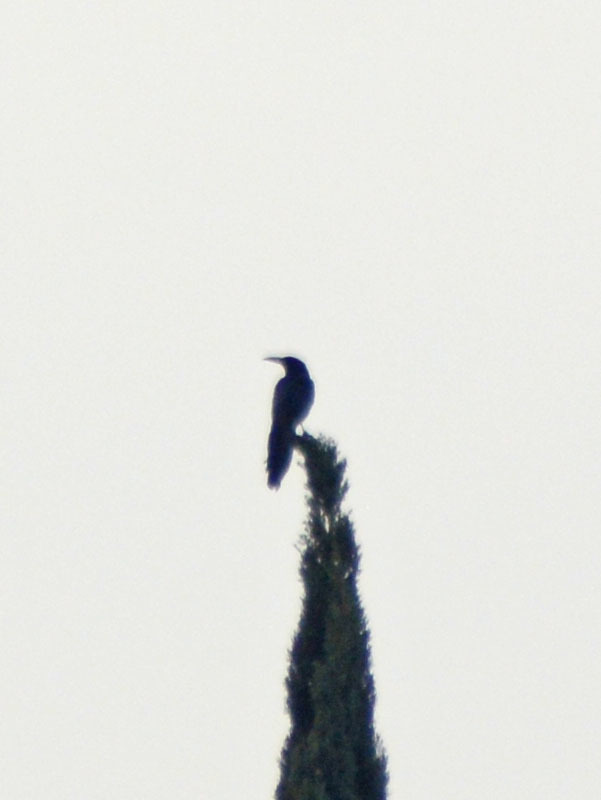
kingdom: Animalia
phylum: Chordata
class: Aves
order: Passeriformes
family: Icteridae
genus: Quiscalus
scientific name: Quiscalus mexicanus
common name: Great-tailed grackle
